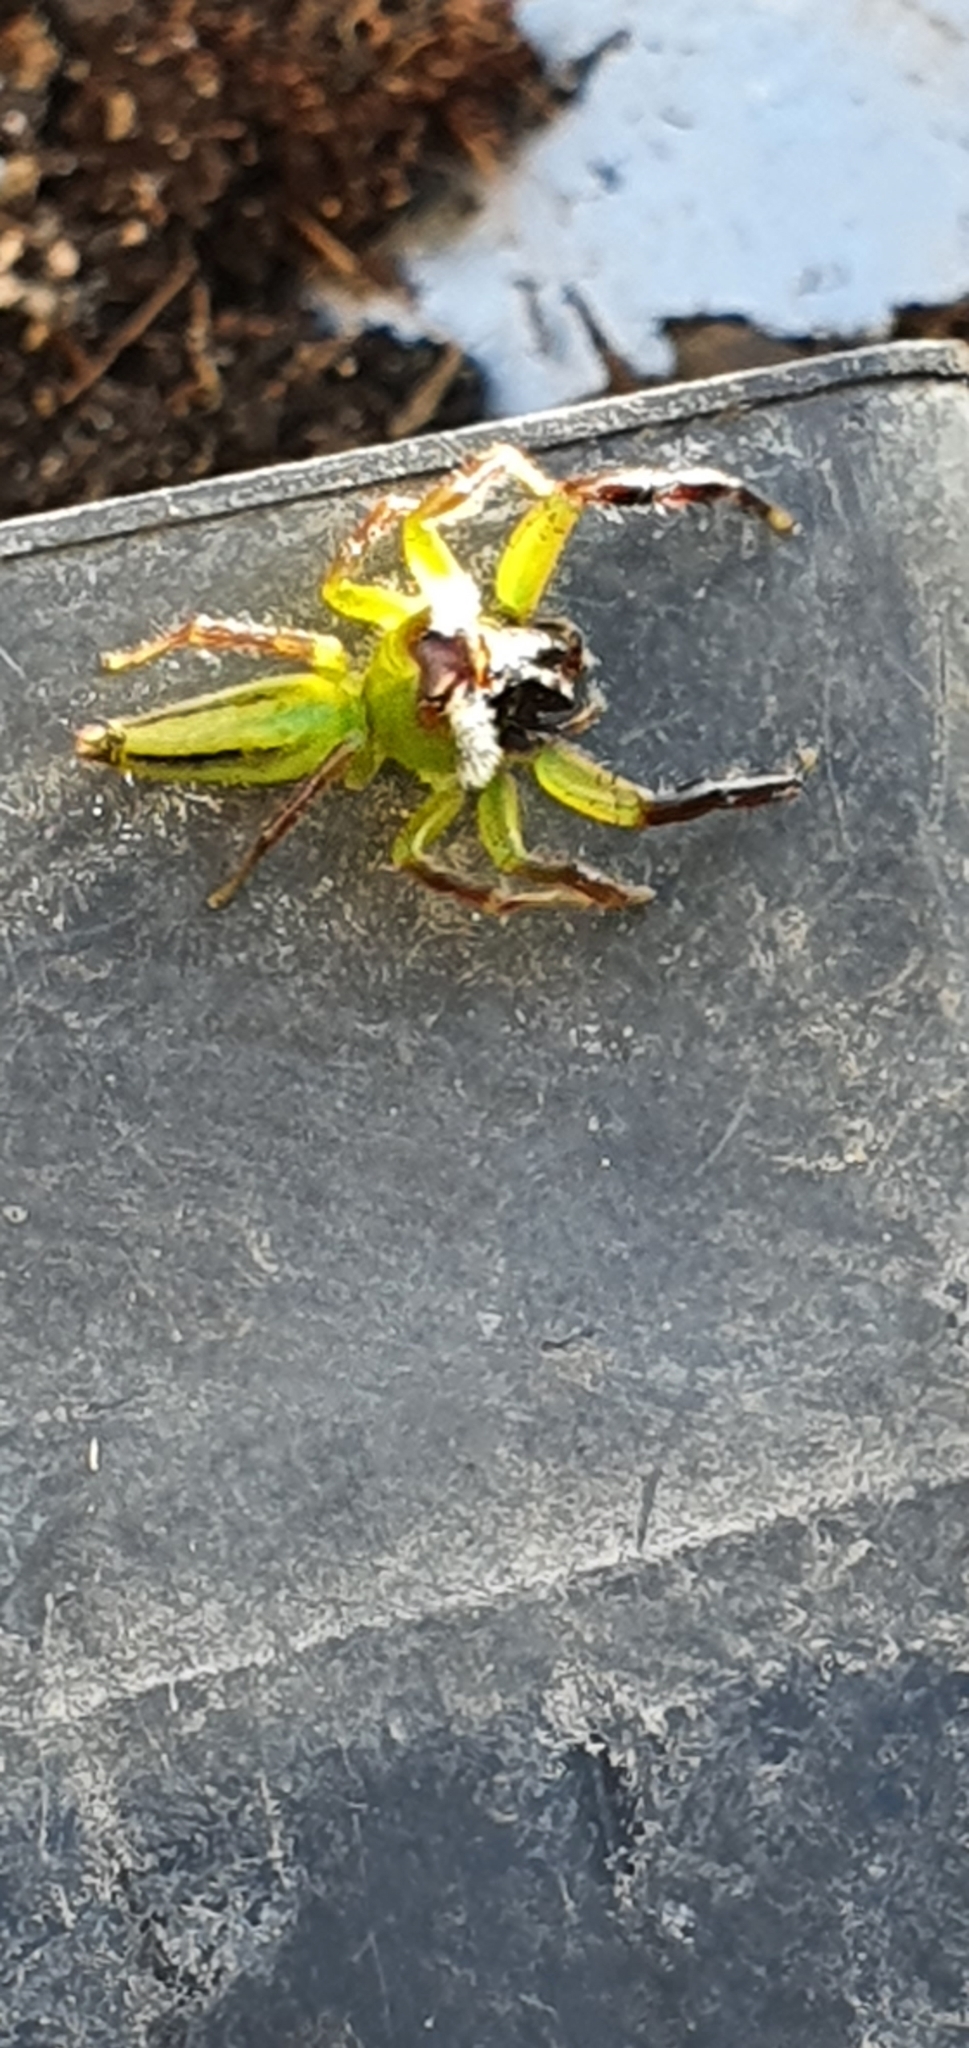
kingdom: Animalia
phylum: Arthropoda
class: Arachnida
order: Araneae
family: Salticidae
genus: Mopsus
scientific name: Mopsus mormon
